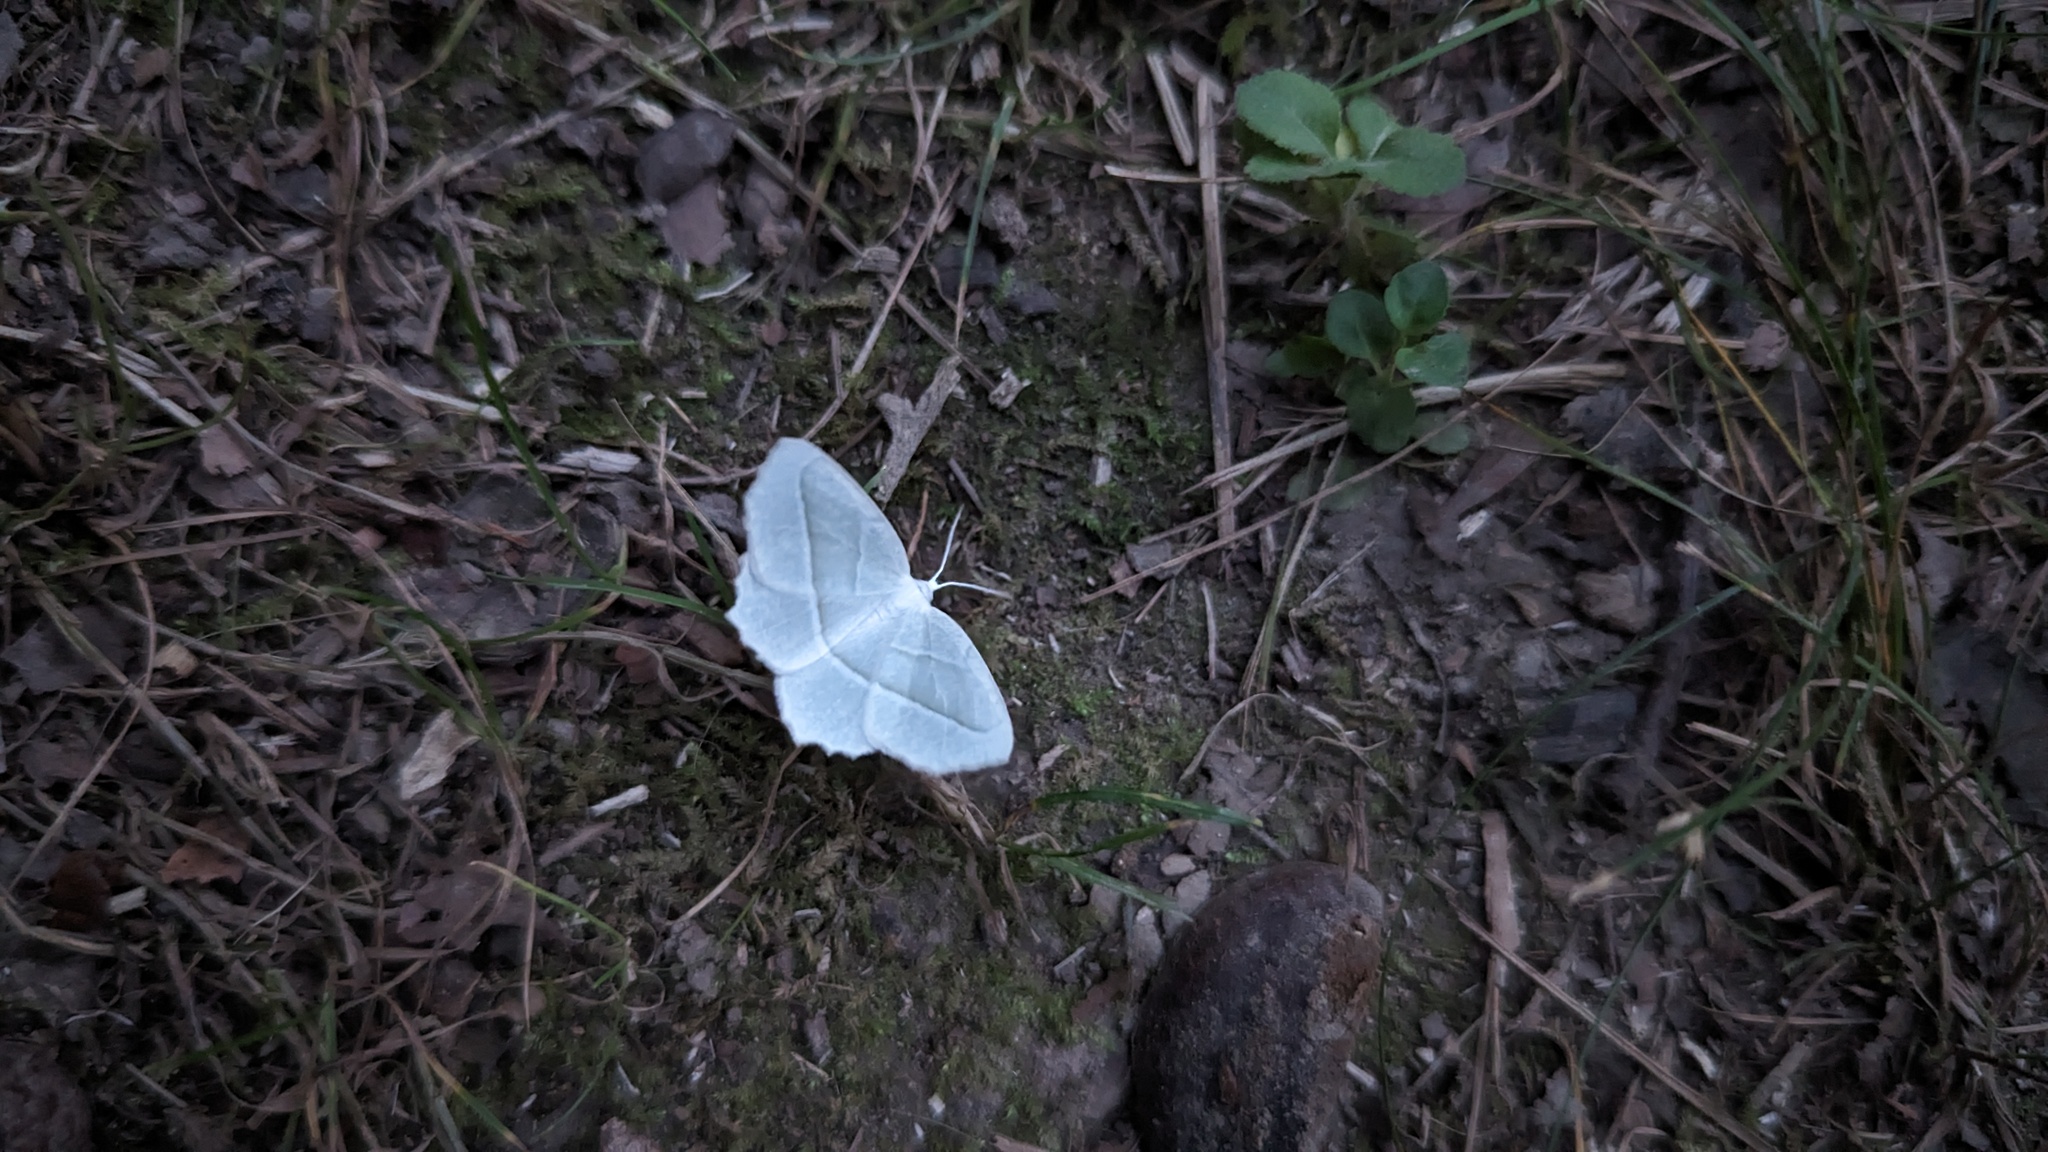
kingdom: Animalia
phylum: Arthropoda
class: Insecta
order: Lepidoptera
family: Geometridae
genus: Campaea
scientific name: Campaea perlata
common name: Fringed looper
